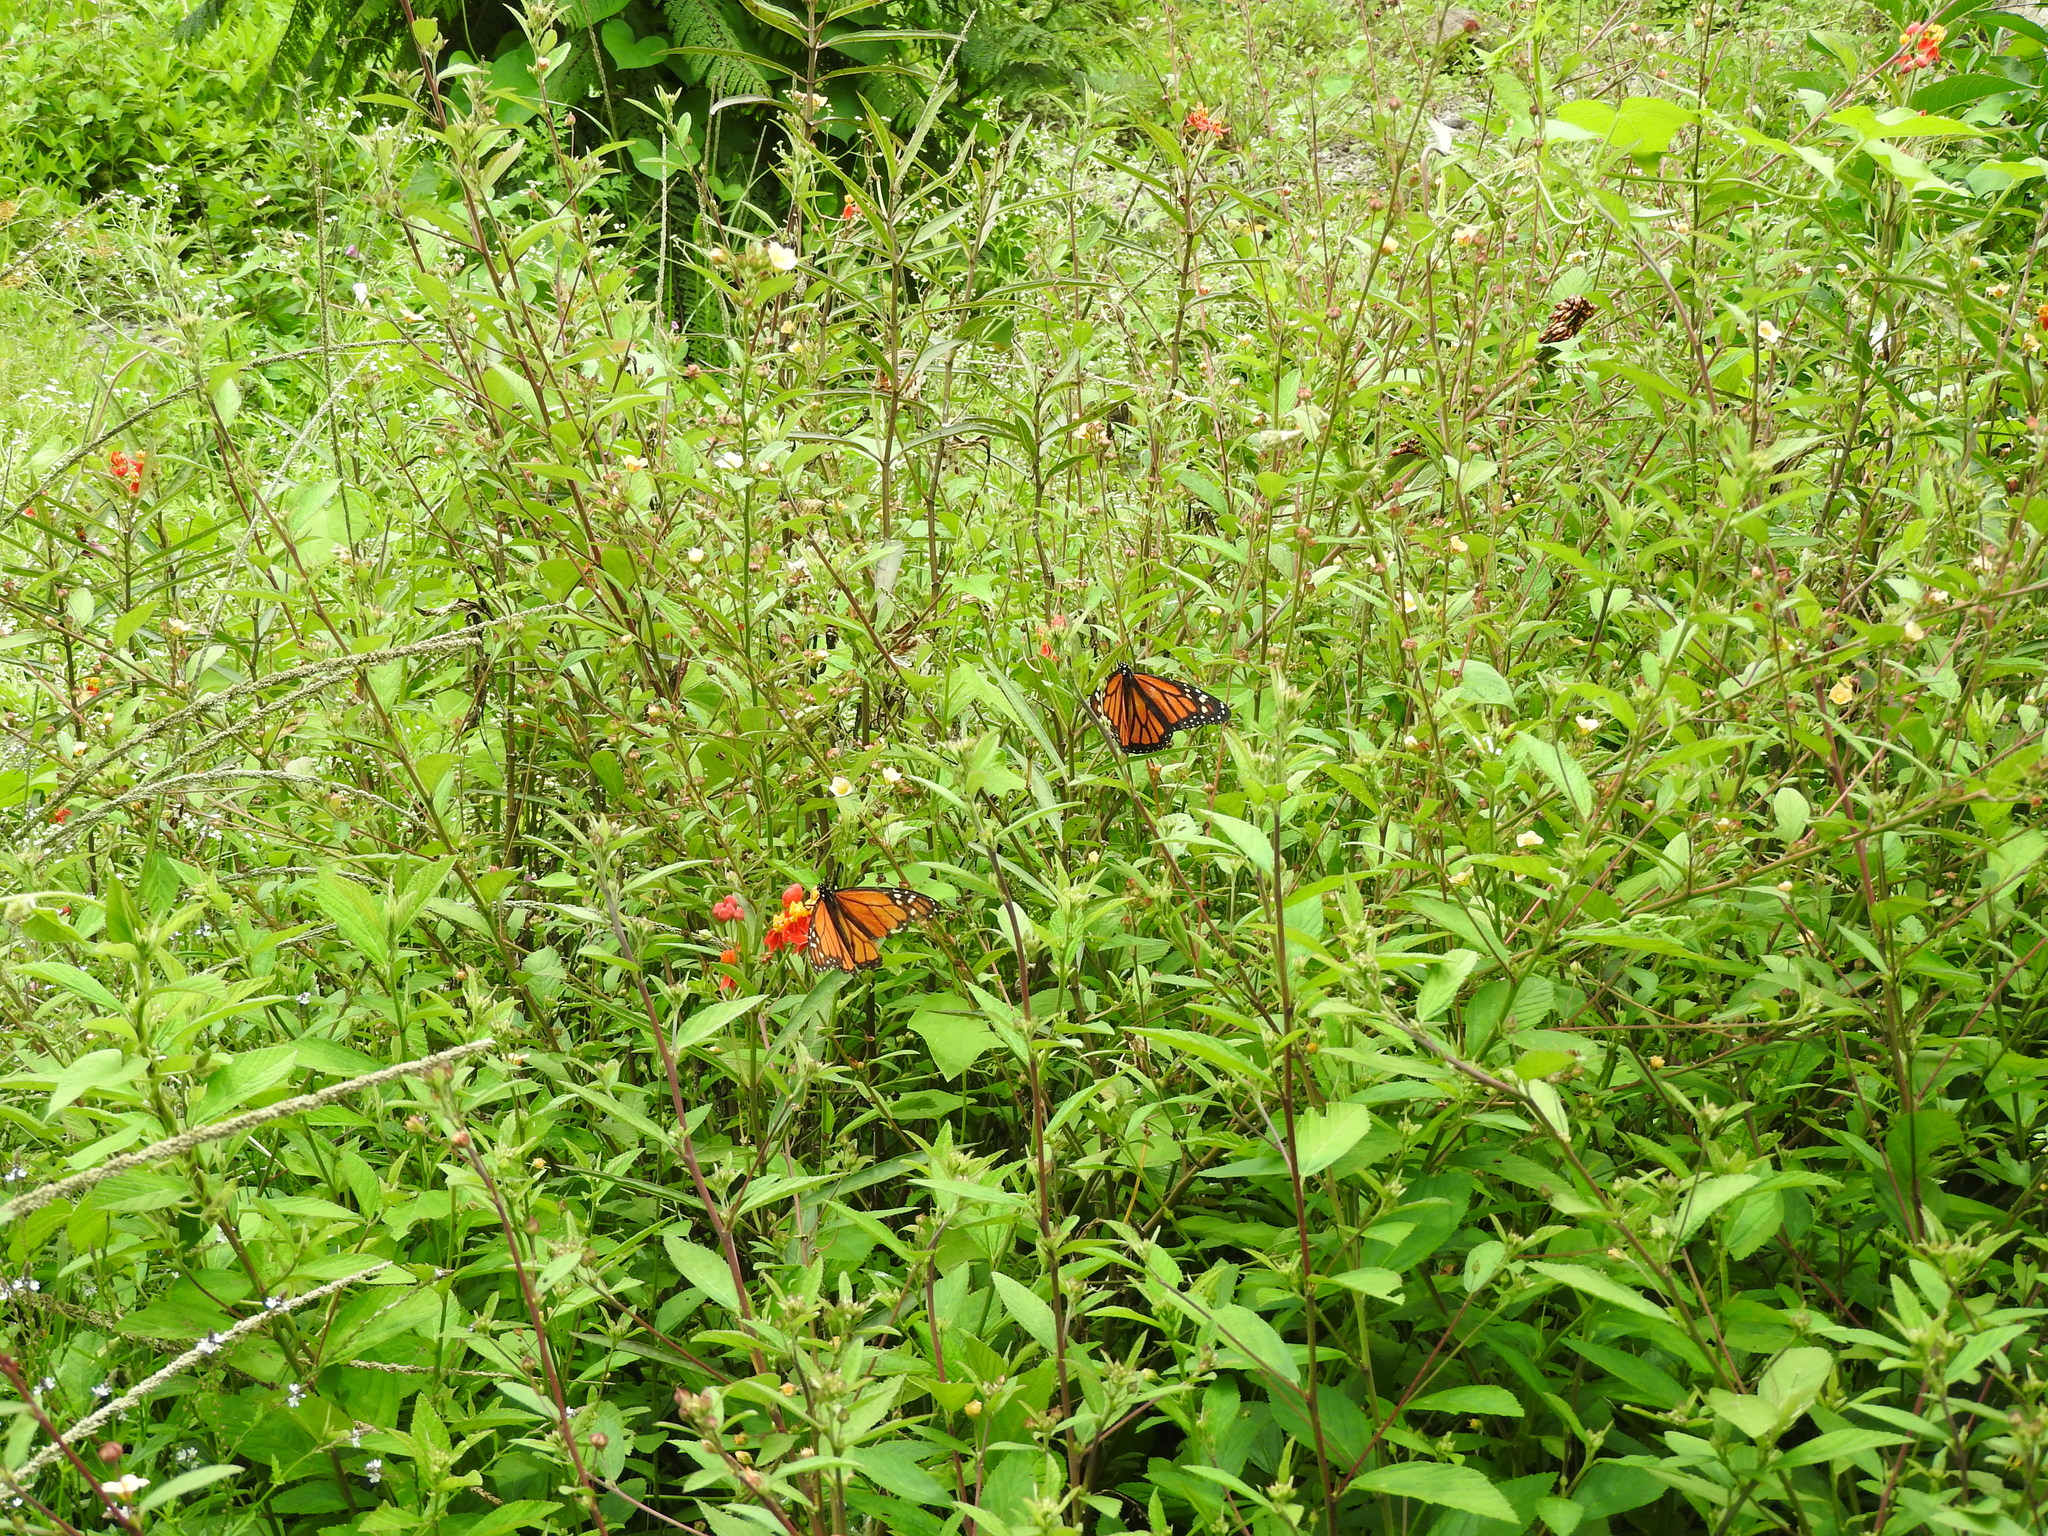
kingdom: Animalia
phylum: Arthropoda
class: Insecta
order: Lepidoptera
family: Nymphalidae
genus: Danaus
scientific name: Danaus plexippus
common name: Monarch
